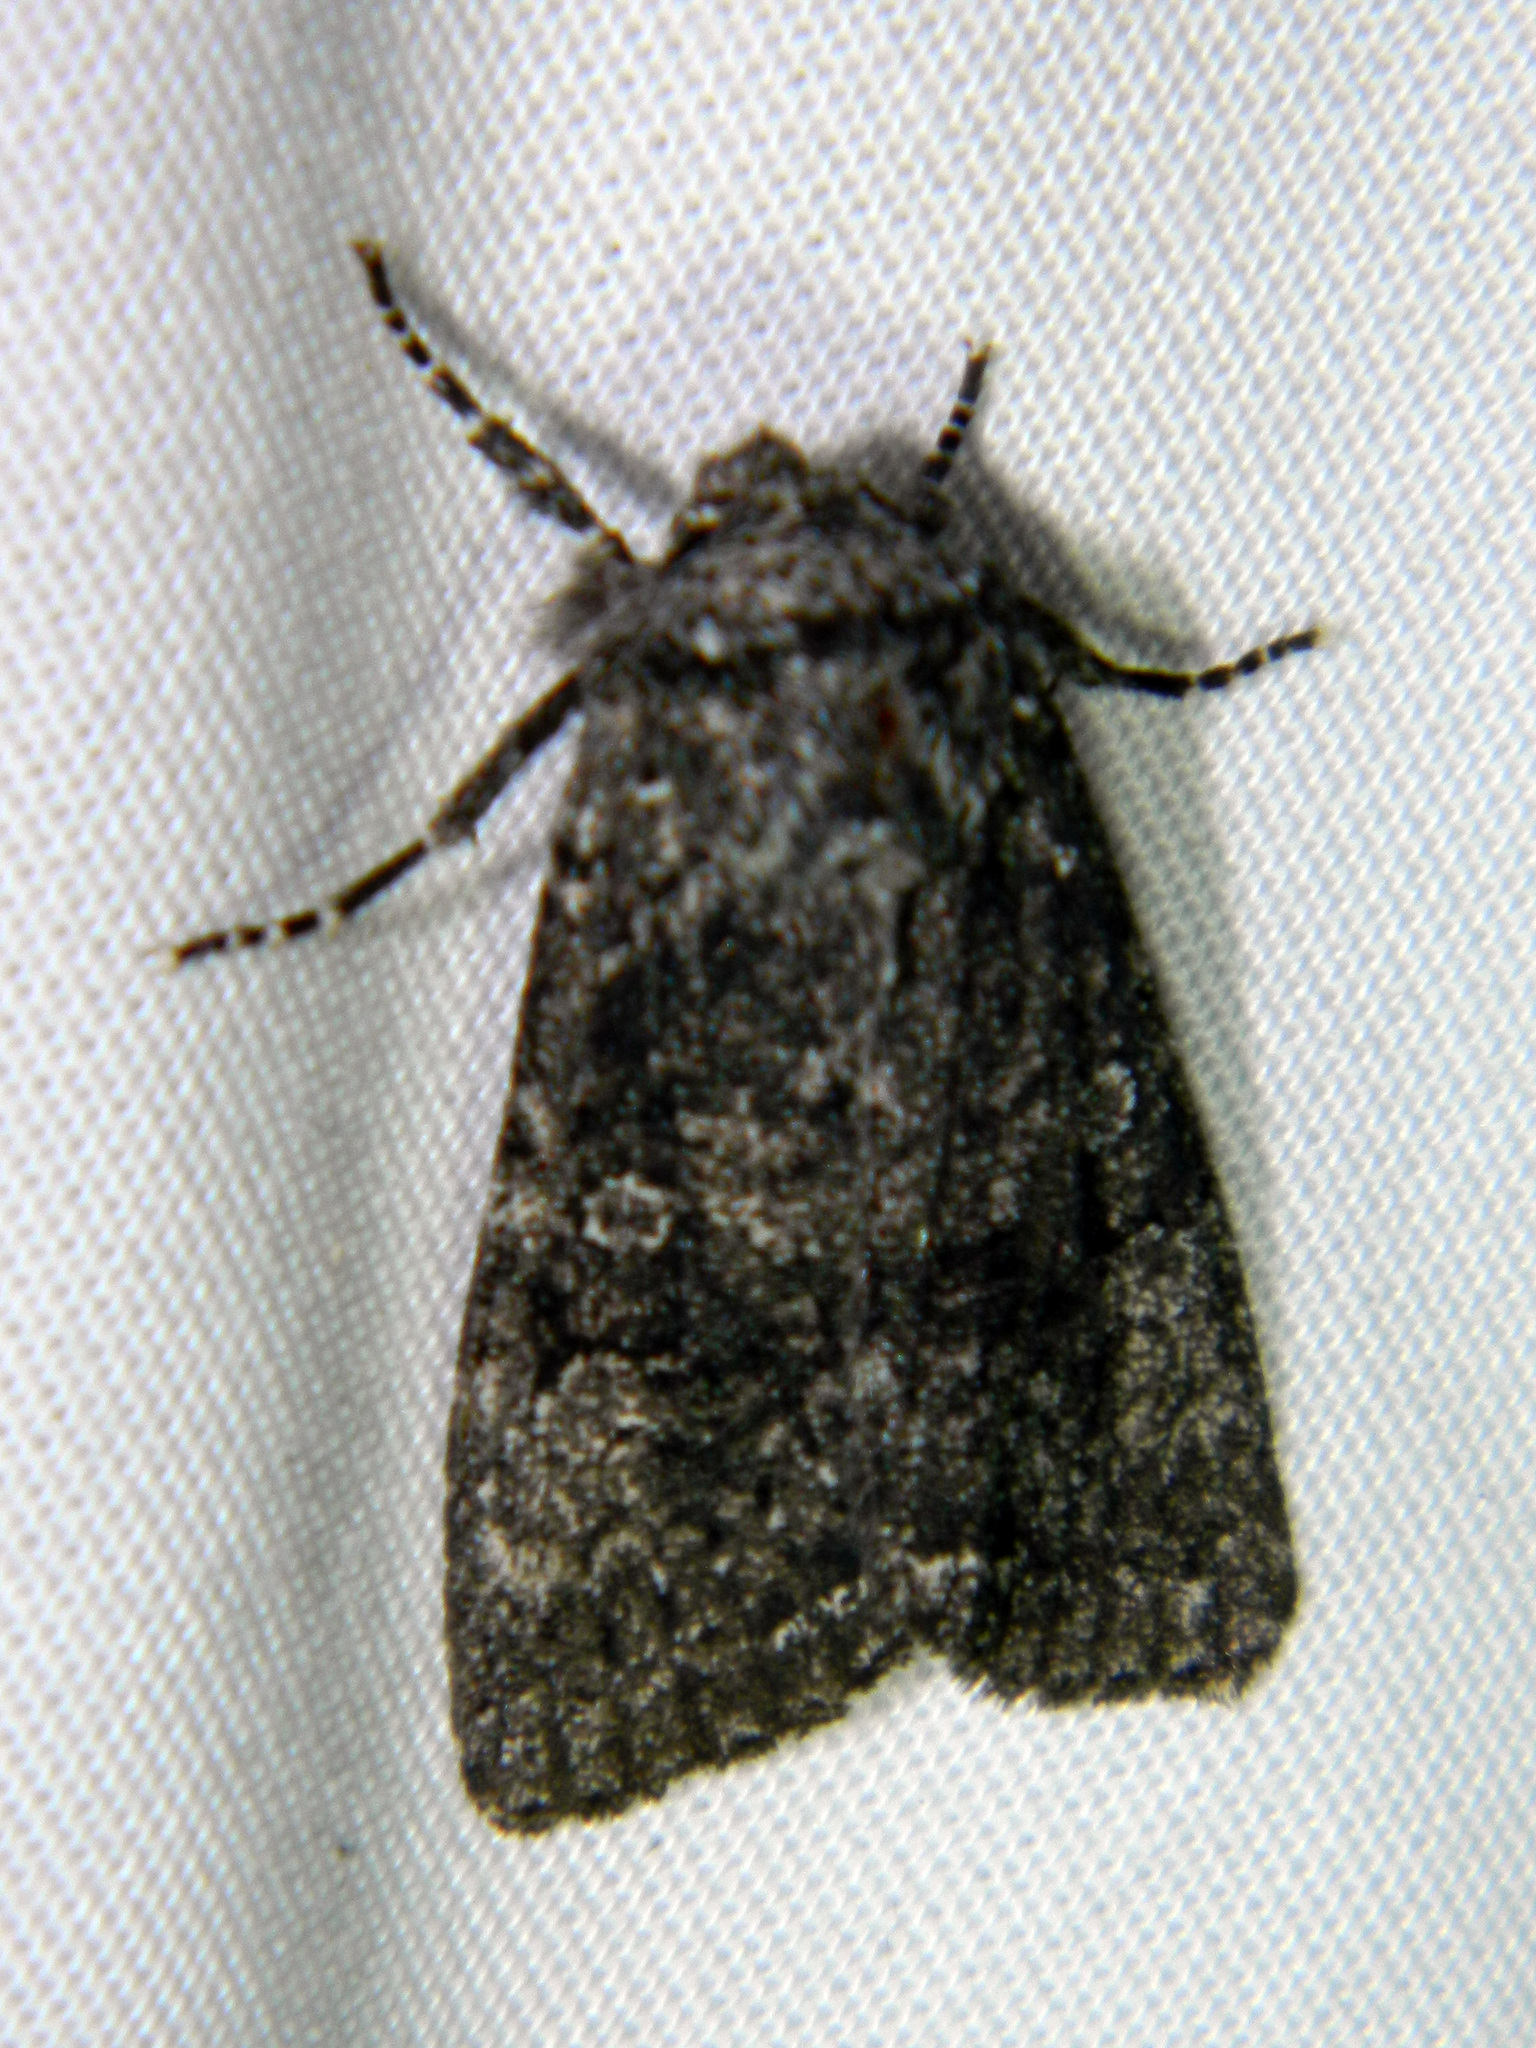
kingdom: Animalia
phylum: Arthropoda
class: Insecta
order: Lepidoptera
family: Noctuidae
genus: Egira
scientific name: Egira dolosa
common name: Lined black aspen cat.
